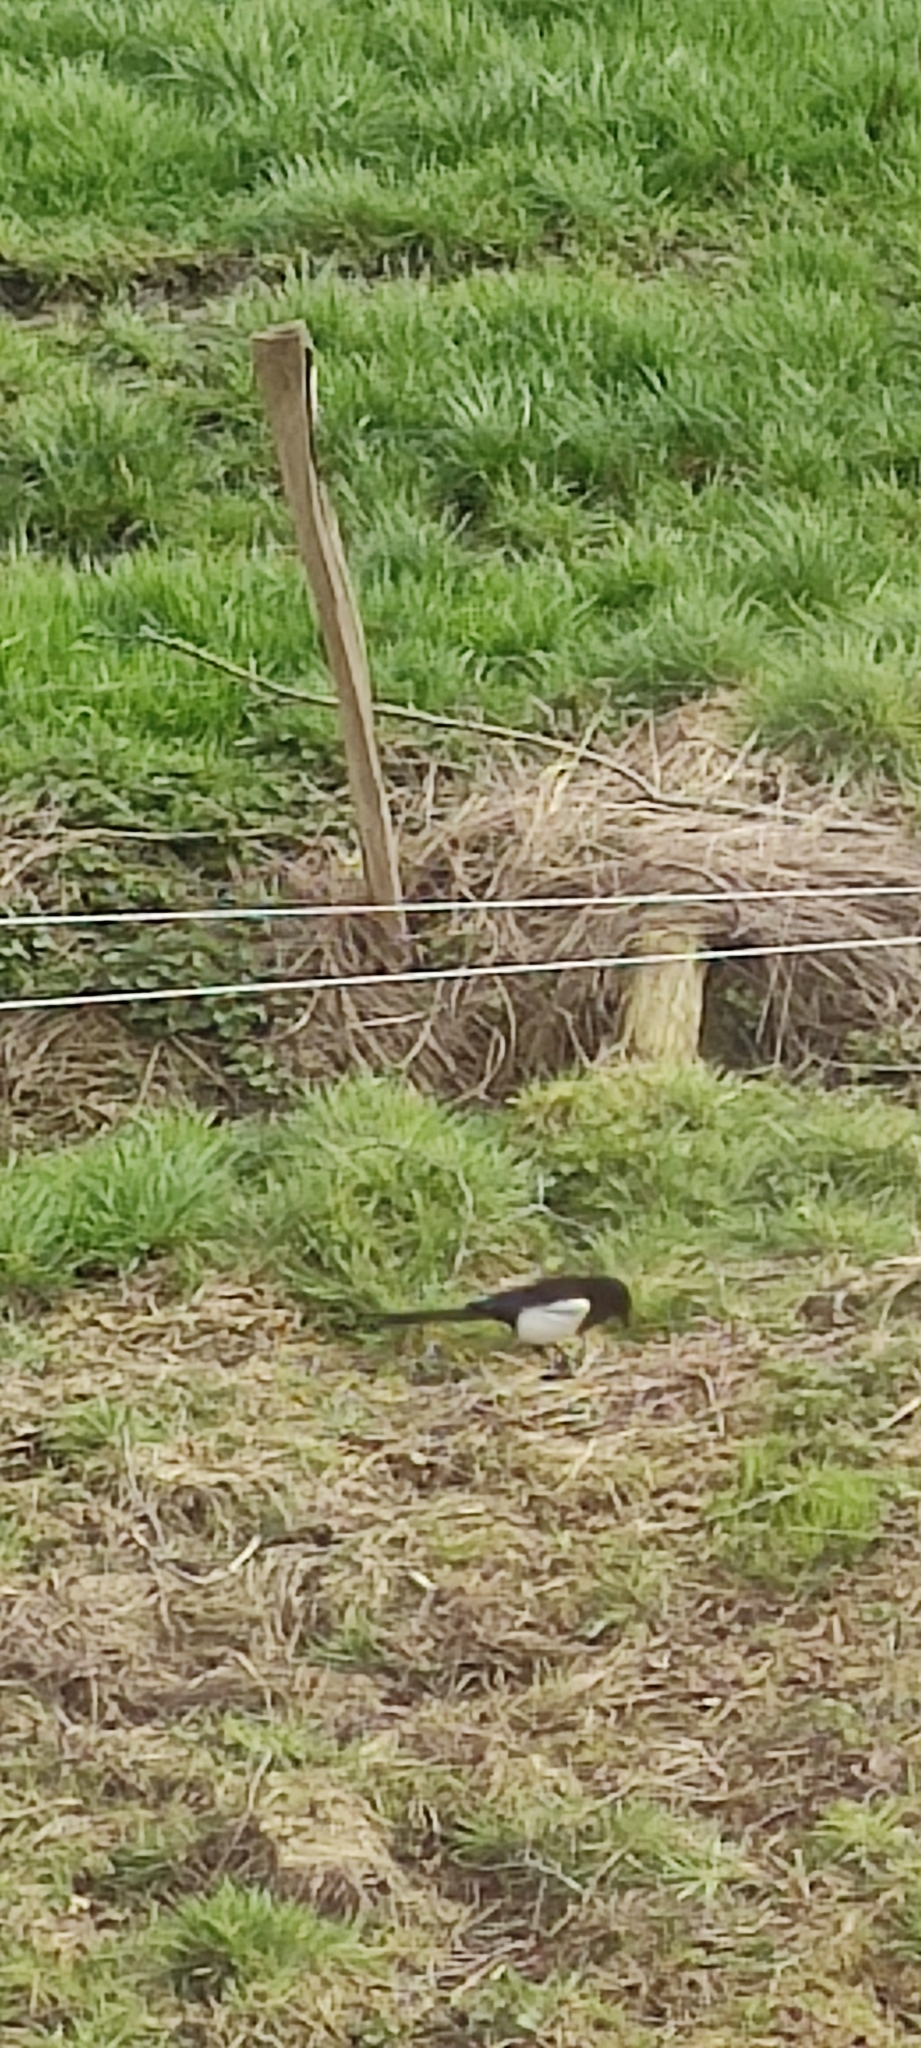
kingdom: Animalia
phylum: Chordata
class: Aves
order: Passeriformes
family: Corvidae
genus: Pica
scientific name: Pica pica
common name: Eurasian magpie
